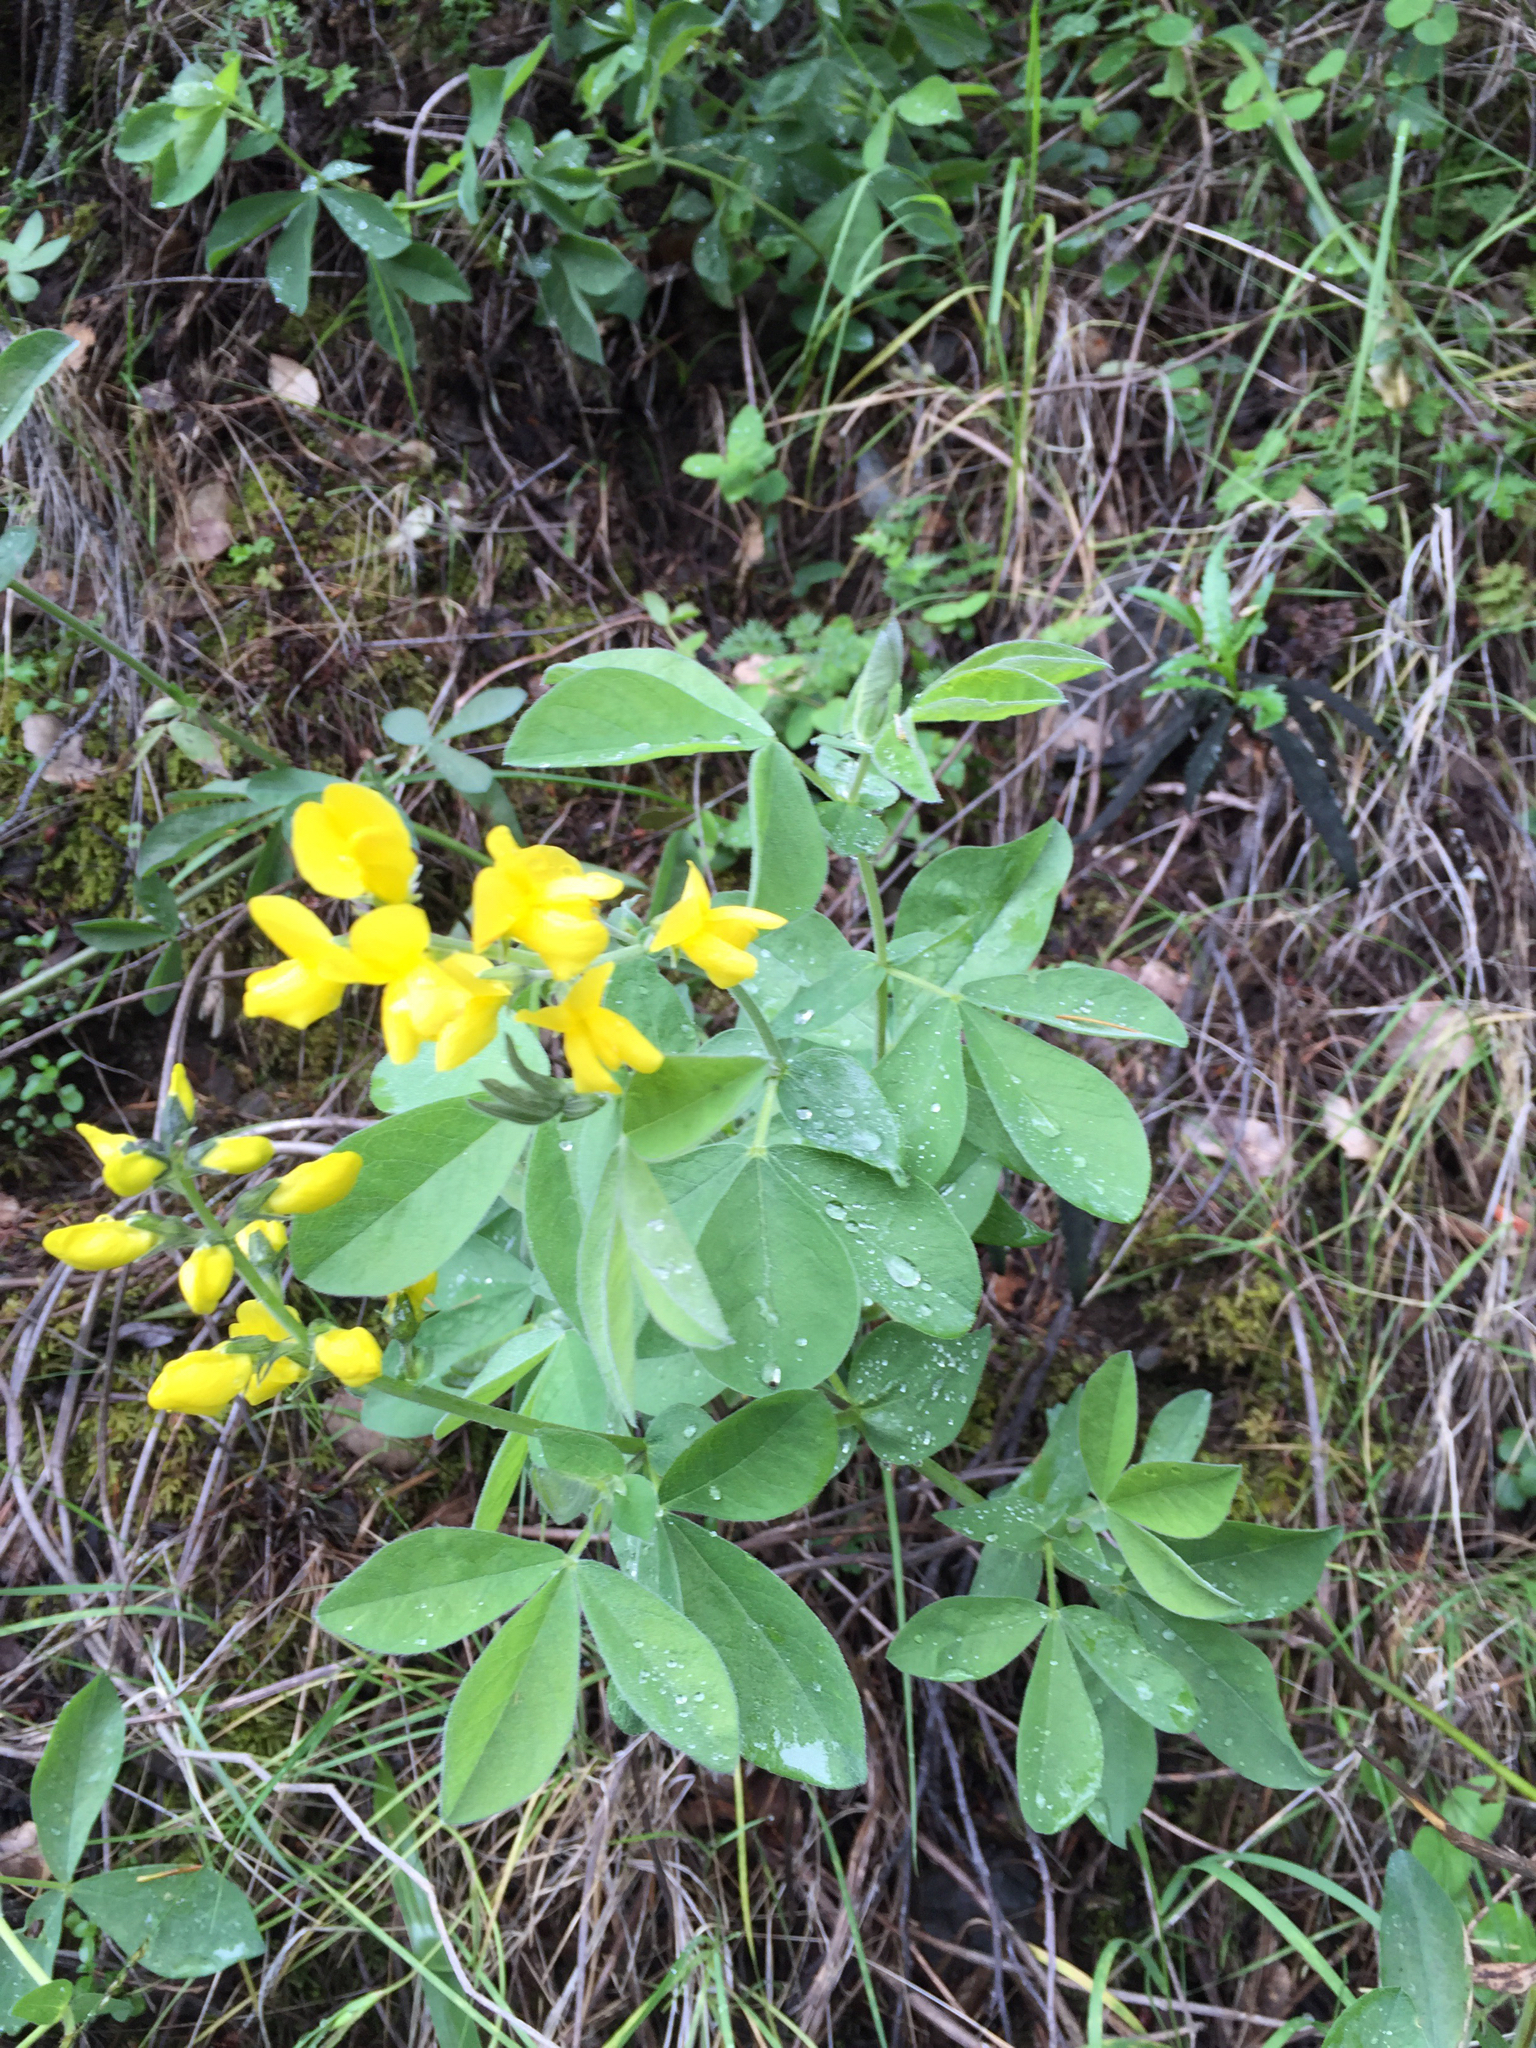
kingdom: Plantae
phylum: Tracheophyta
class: Magnoliopsida
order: Fabales
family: Fabaceae
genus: Thermopsis
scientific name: Thermopsis californica
